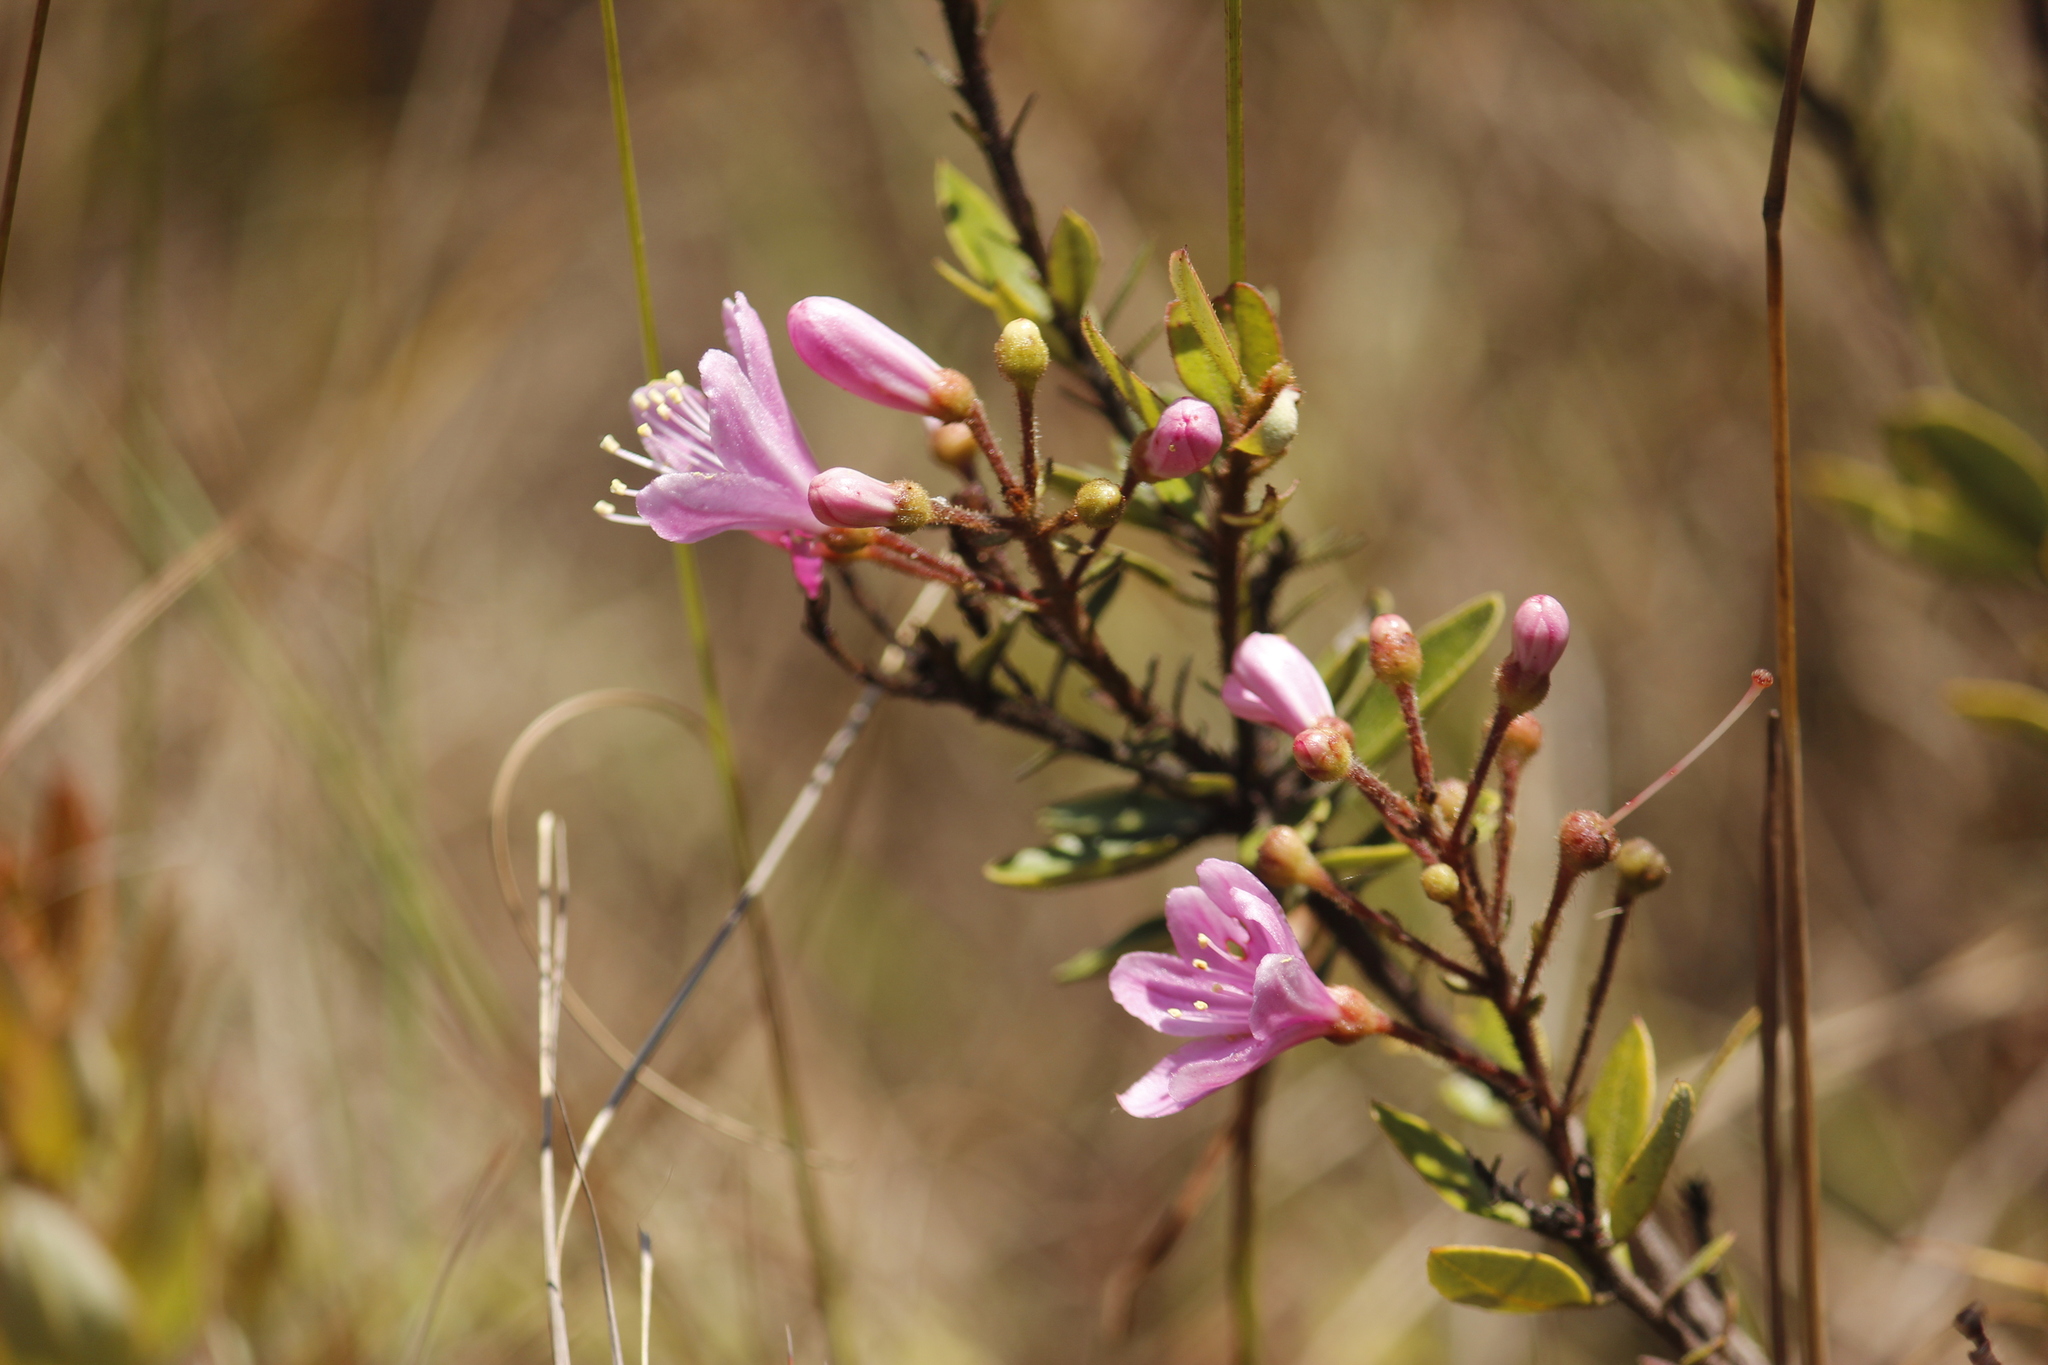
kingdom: Plantae
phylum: Tracheophyta
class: Magnoliopsida
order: Ericales
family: Ericaceae
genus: Bejaria
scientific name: Bejaria aestuans
